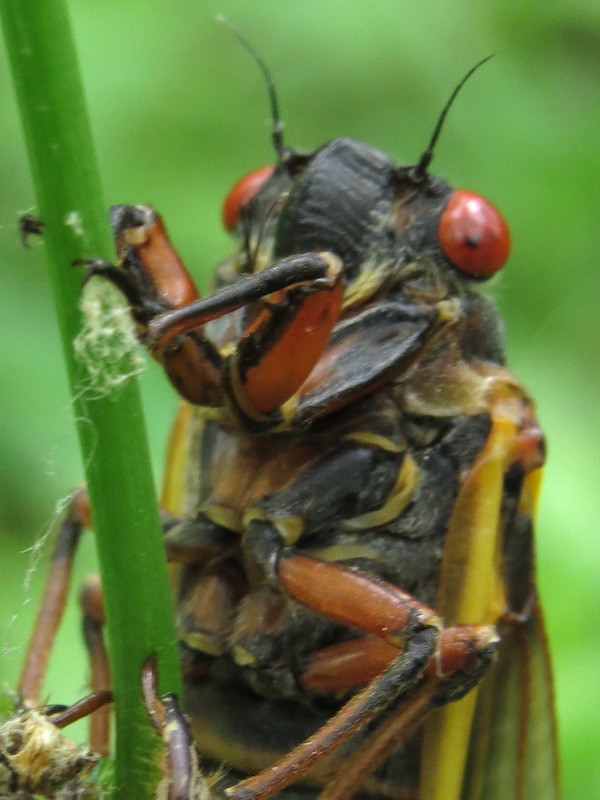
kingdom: Animalia
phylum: Arthropoda
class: Insecta
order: Hemiptera
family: Cicadidae
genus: Magicicada
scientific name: Magicicada septendecim
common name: Periodical cicada
